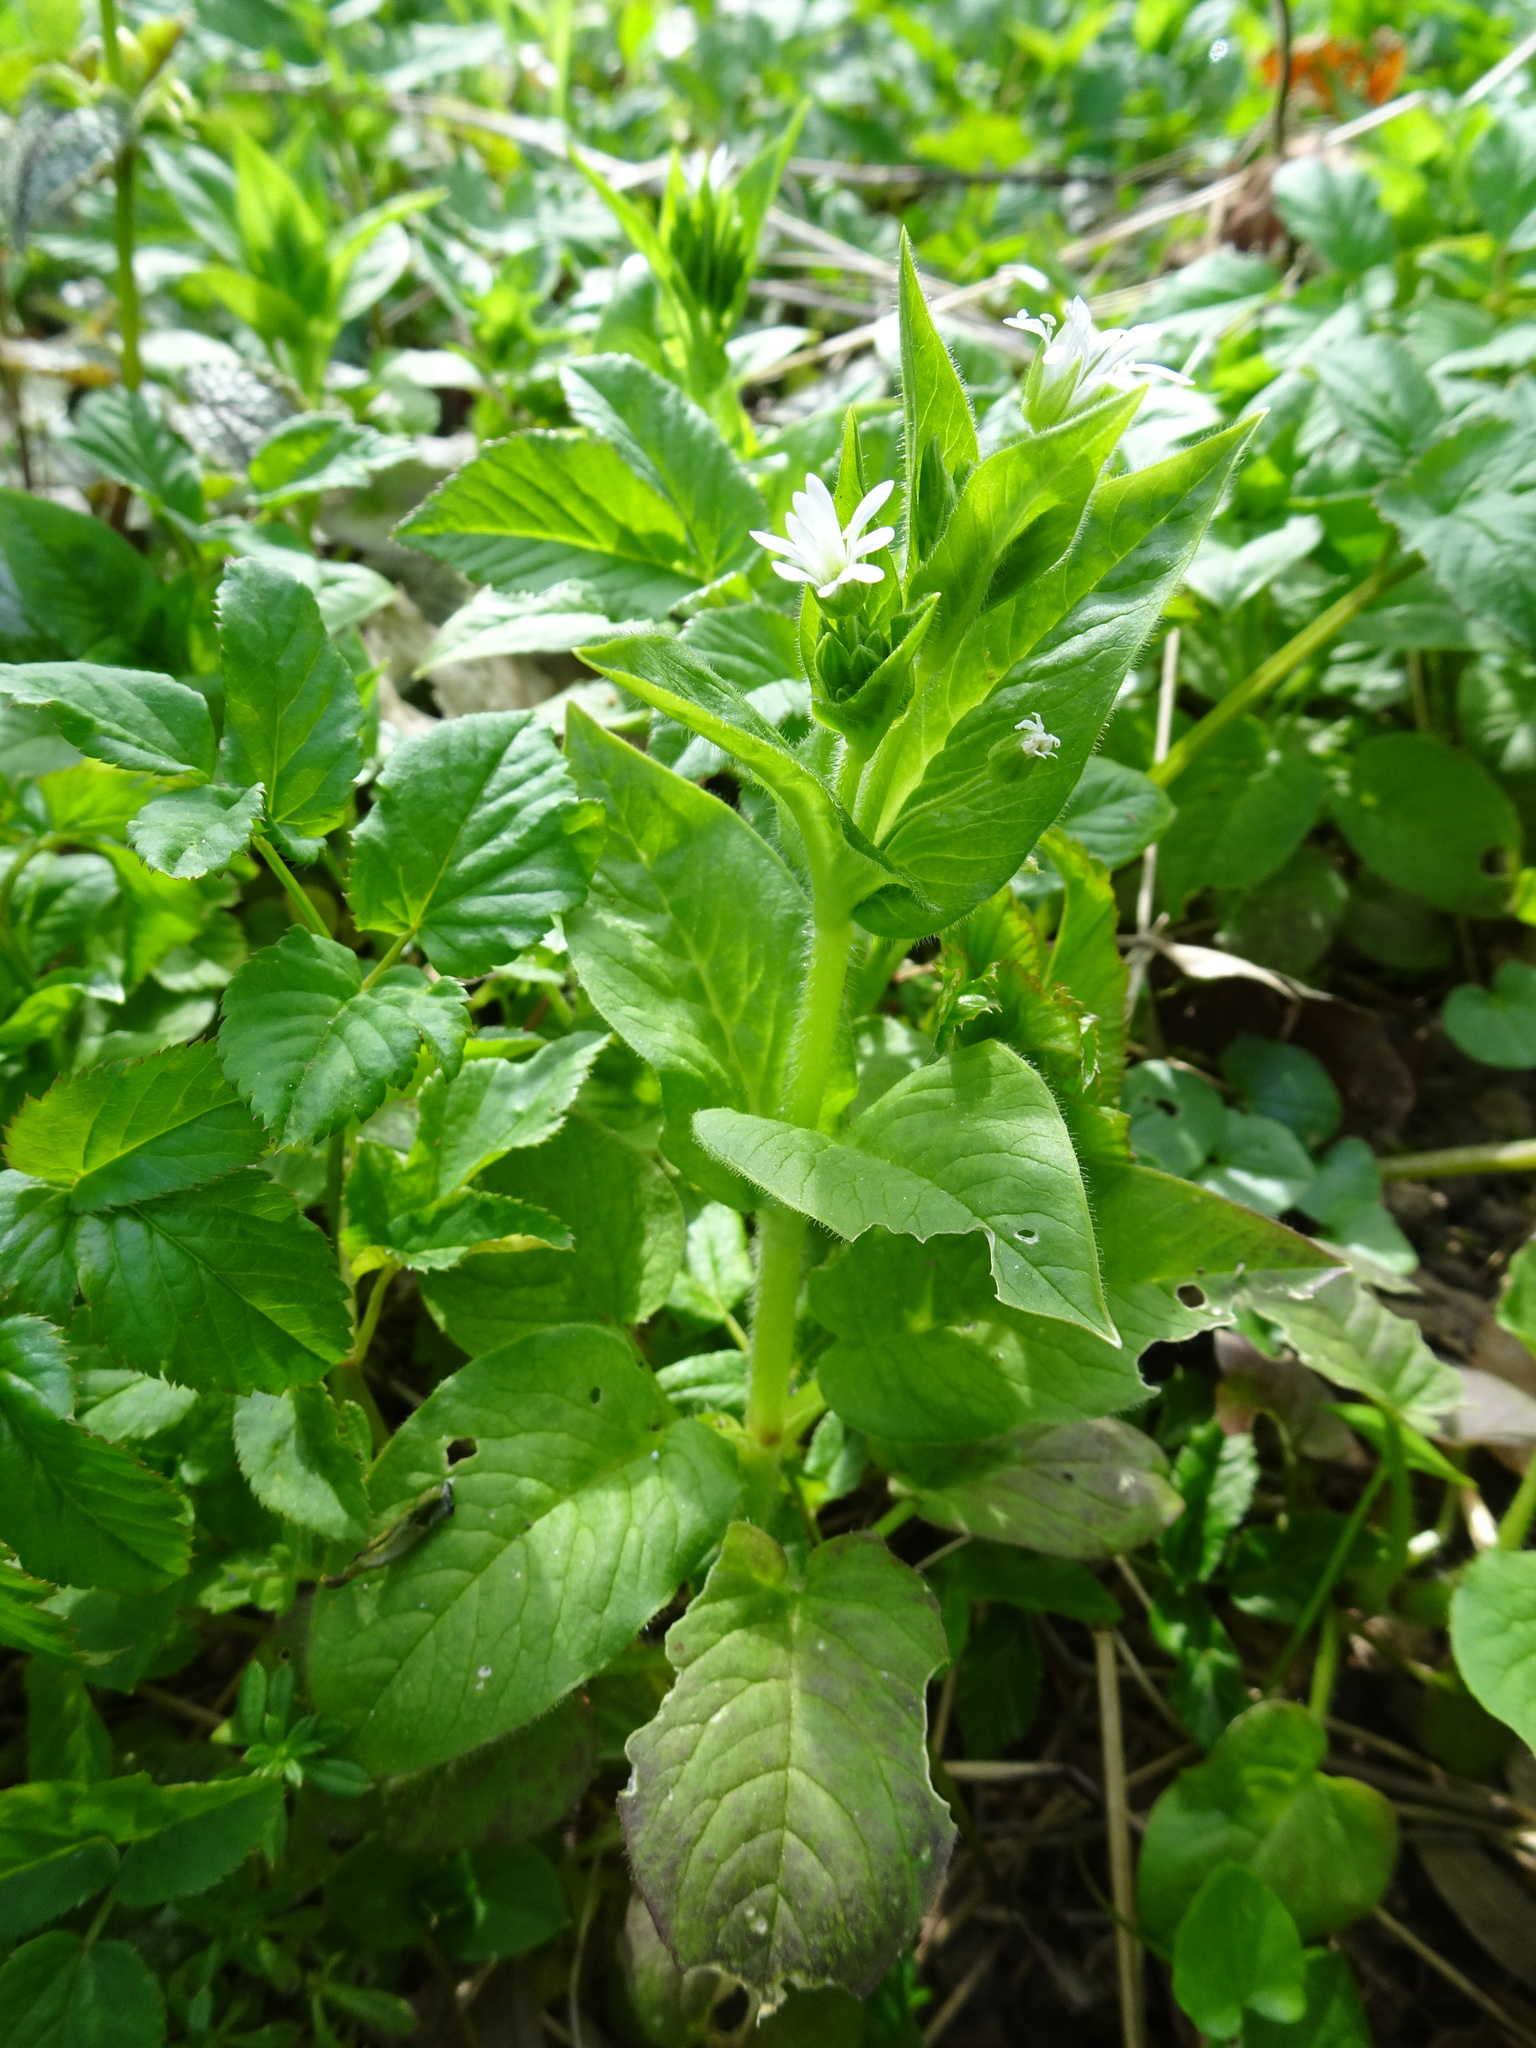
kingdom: Plantae
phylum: Tracheophyta
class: Magnoliopsida
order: Caryophyllales
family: Caryophyllaceae
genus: Stellaria
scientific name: Stellaria nemorum
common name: Wood stitchwort
